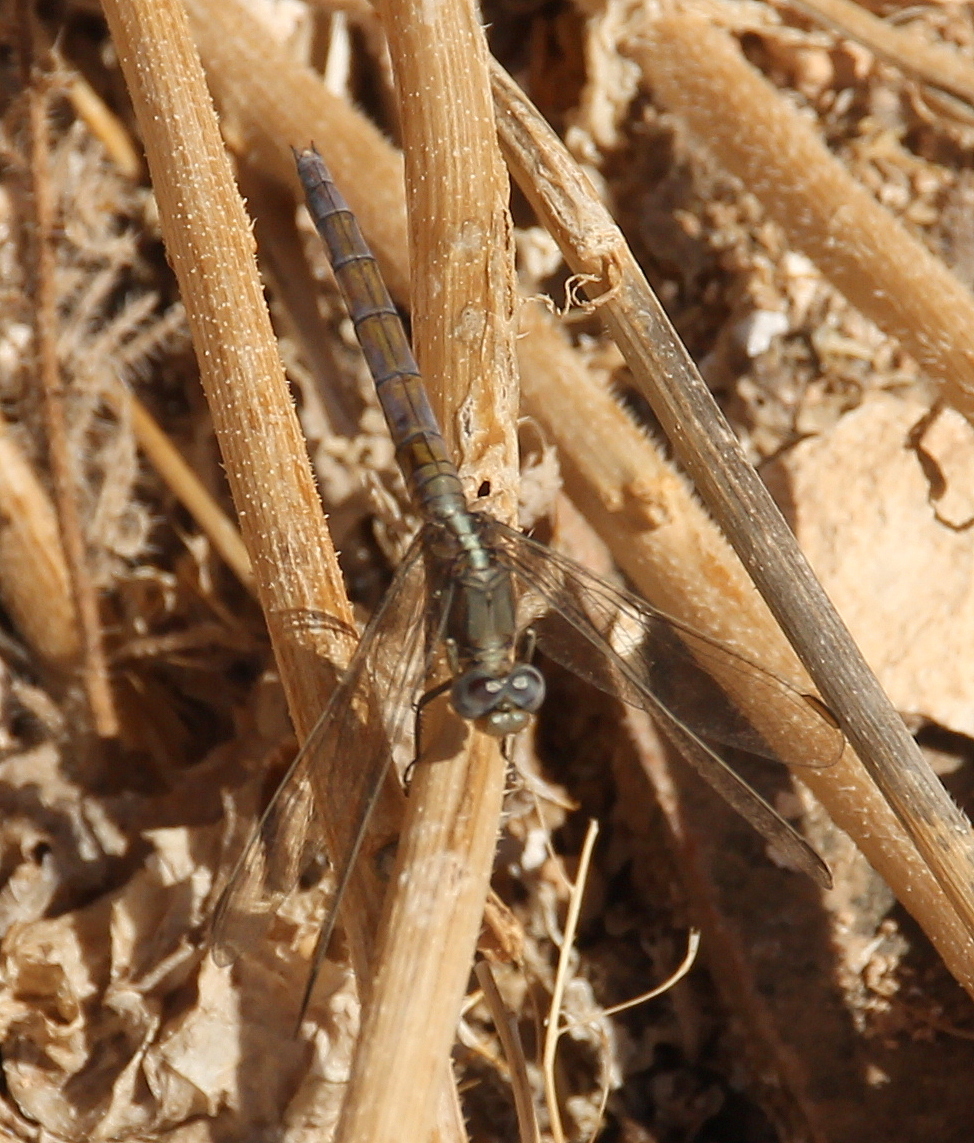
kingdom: Animalia
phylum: Arthropoda
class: Insecta
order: Odonata
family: Libellulidae
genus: Orthetrum
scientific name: Orthetrum chrysostigma
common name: Epaulet skimmer
